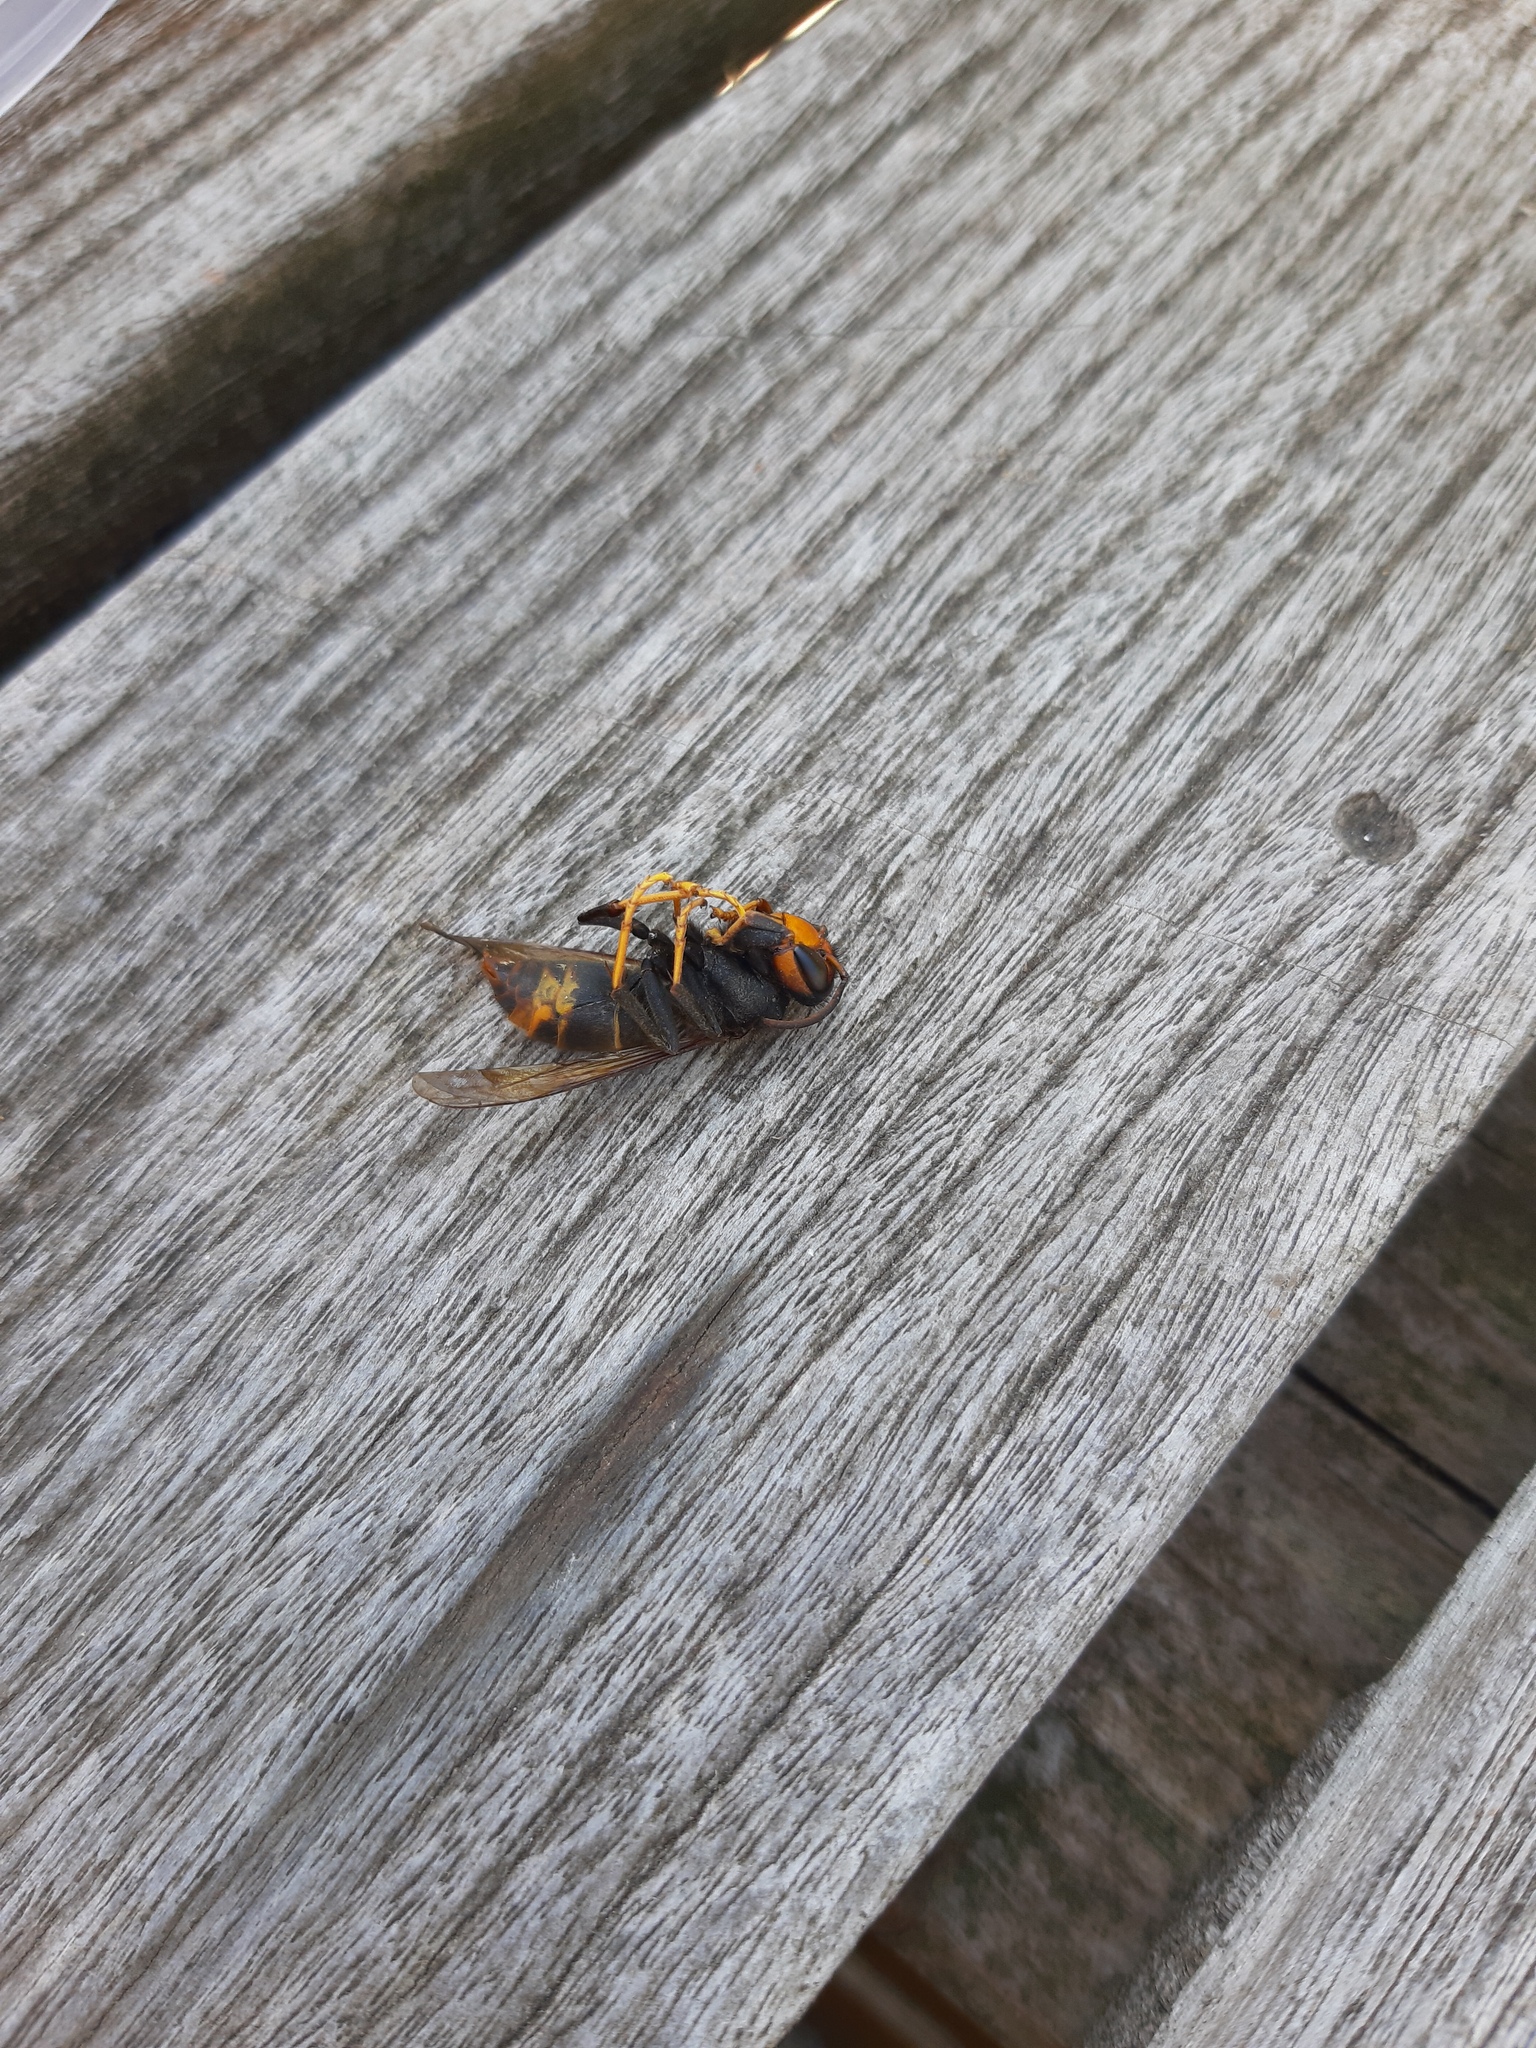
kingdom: Animalia
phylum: Arthropoda
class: Insecta
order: Hymenoptera
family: Vespidae
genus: Vespa
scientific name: Vespa velutina
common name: Asian hornet
